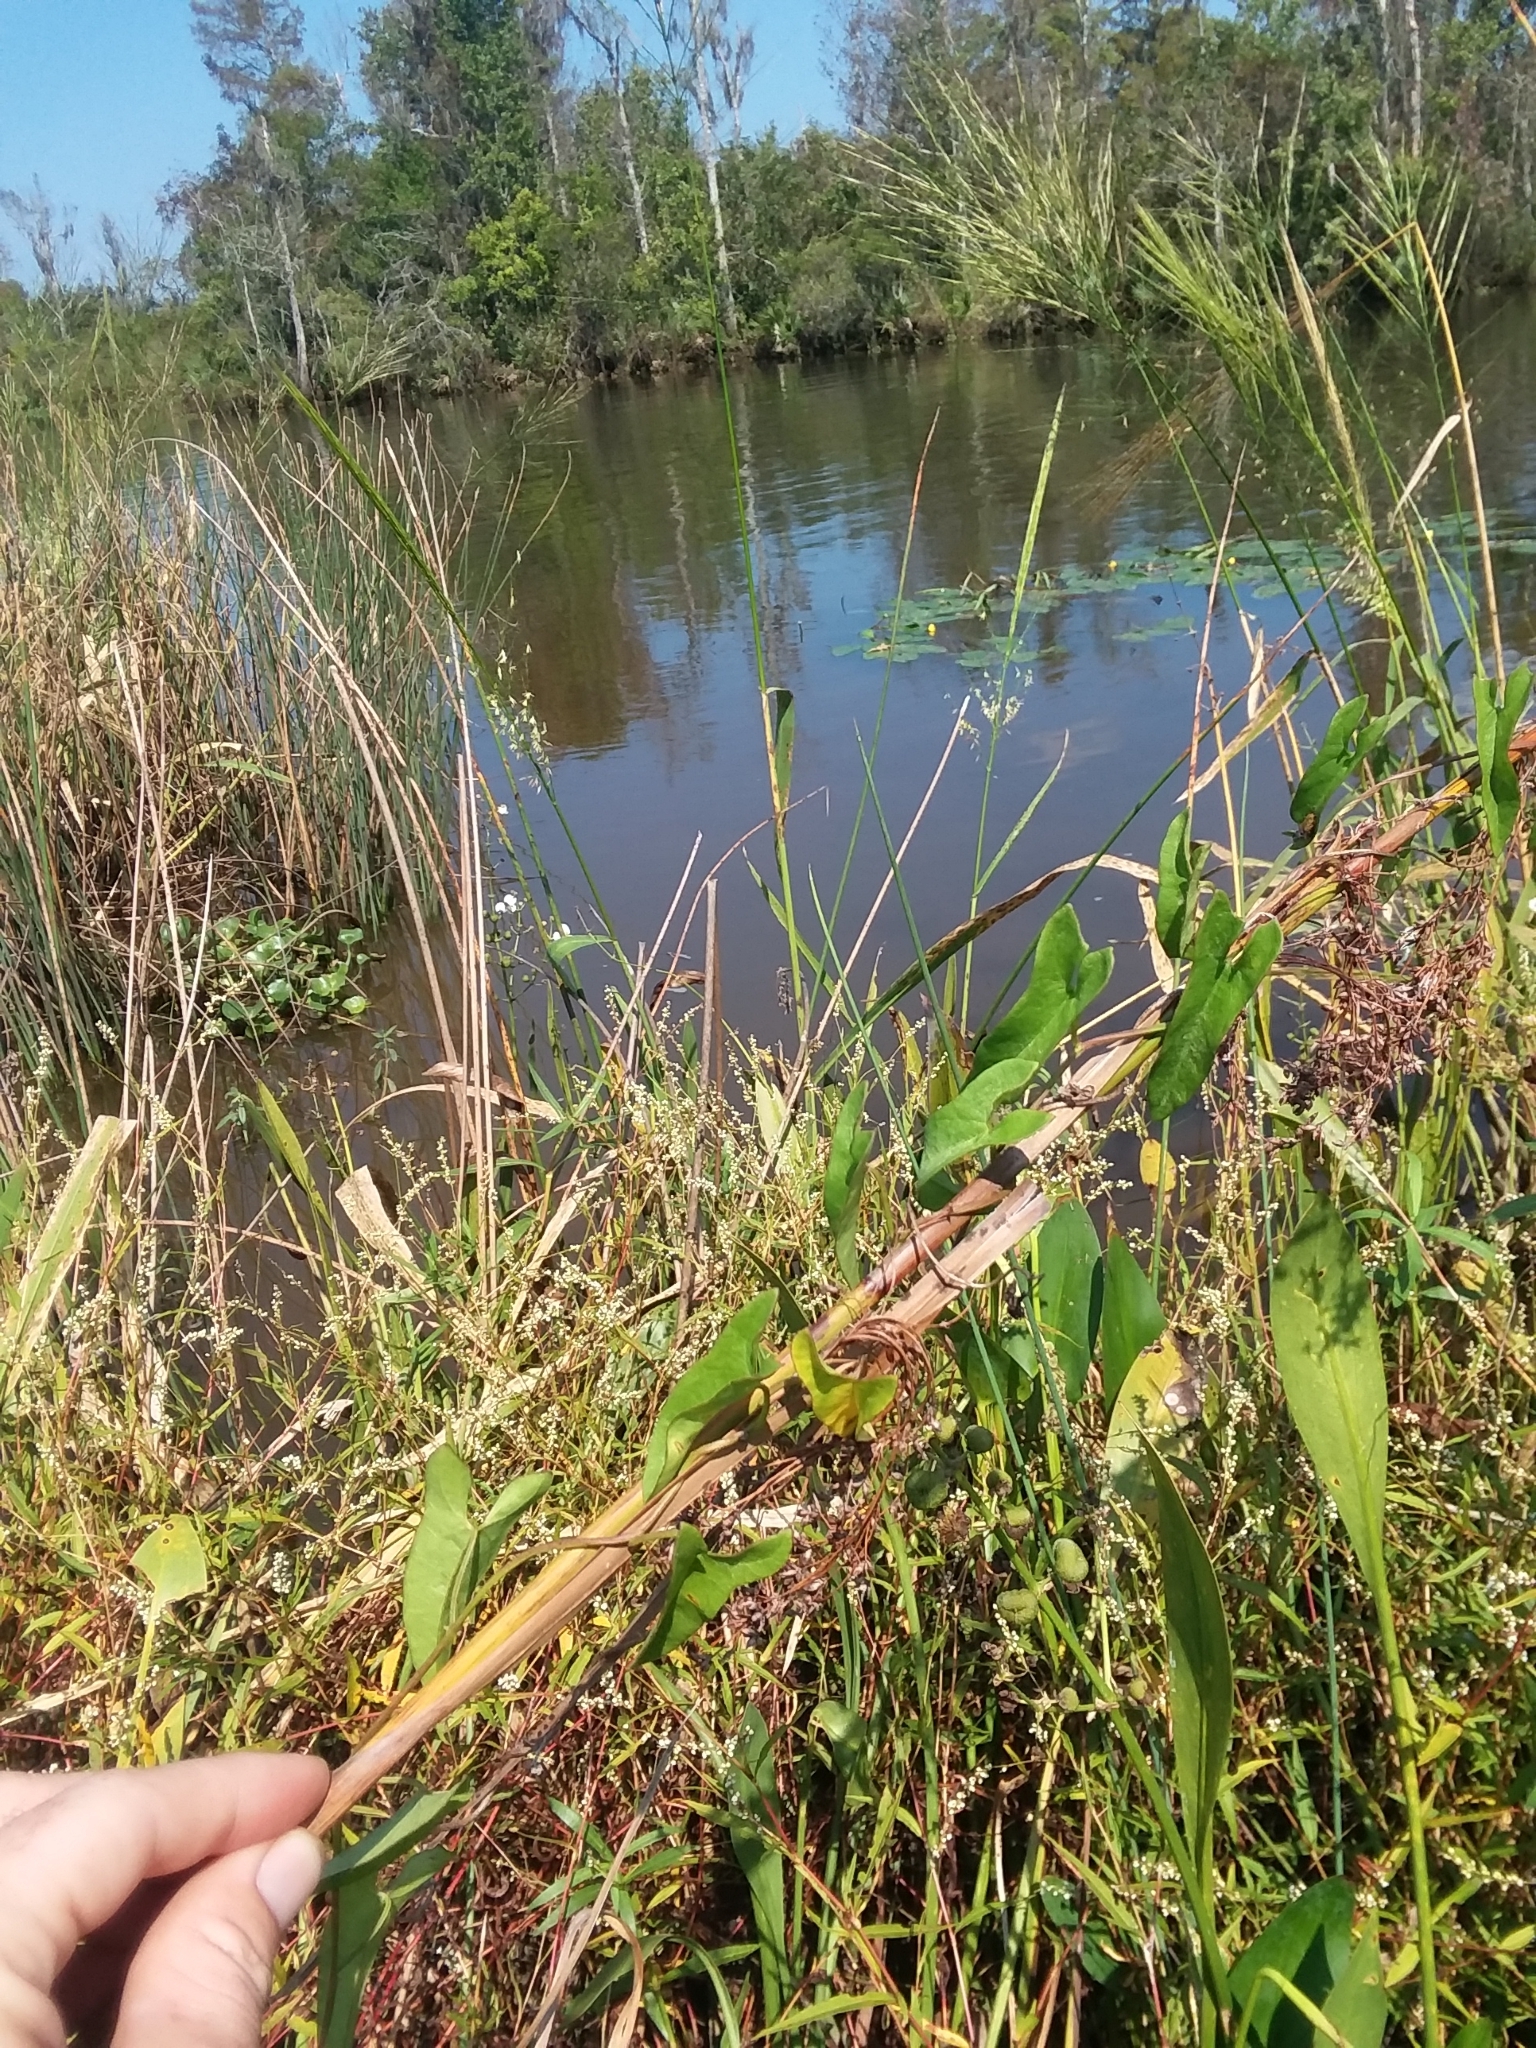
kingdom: Plantae
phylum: Tracheophyta
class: Magnoliopsida
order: Solanales
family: Convolvulaceae
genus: Calystegia
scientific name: Calystegia sepium
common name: Hedge bindweed
